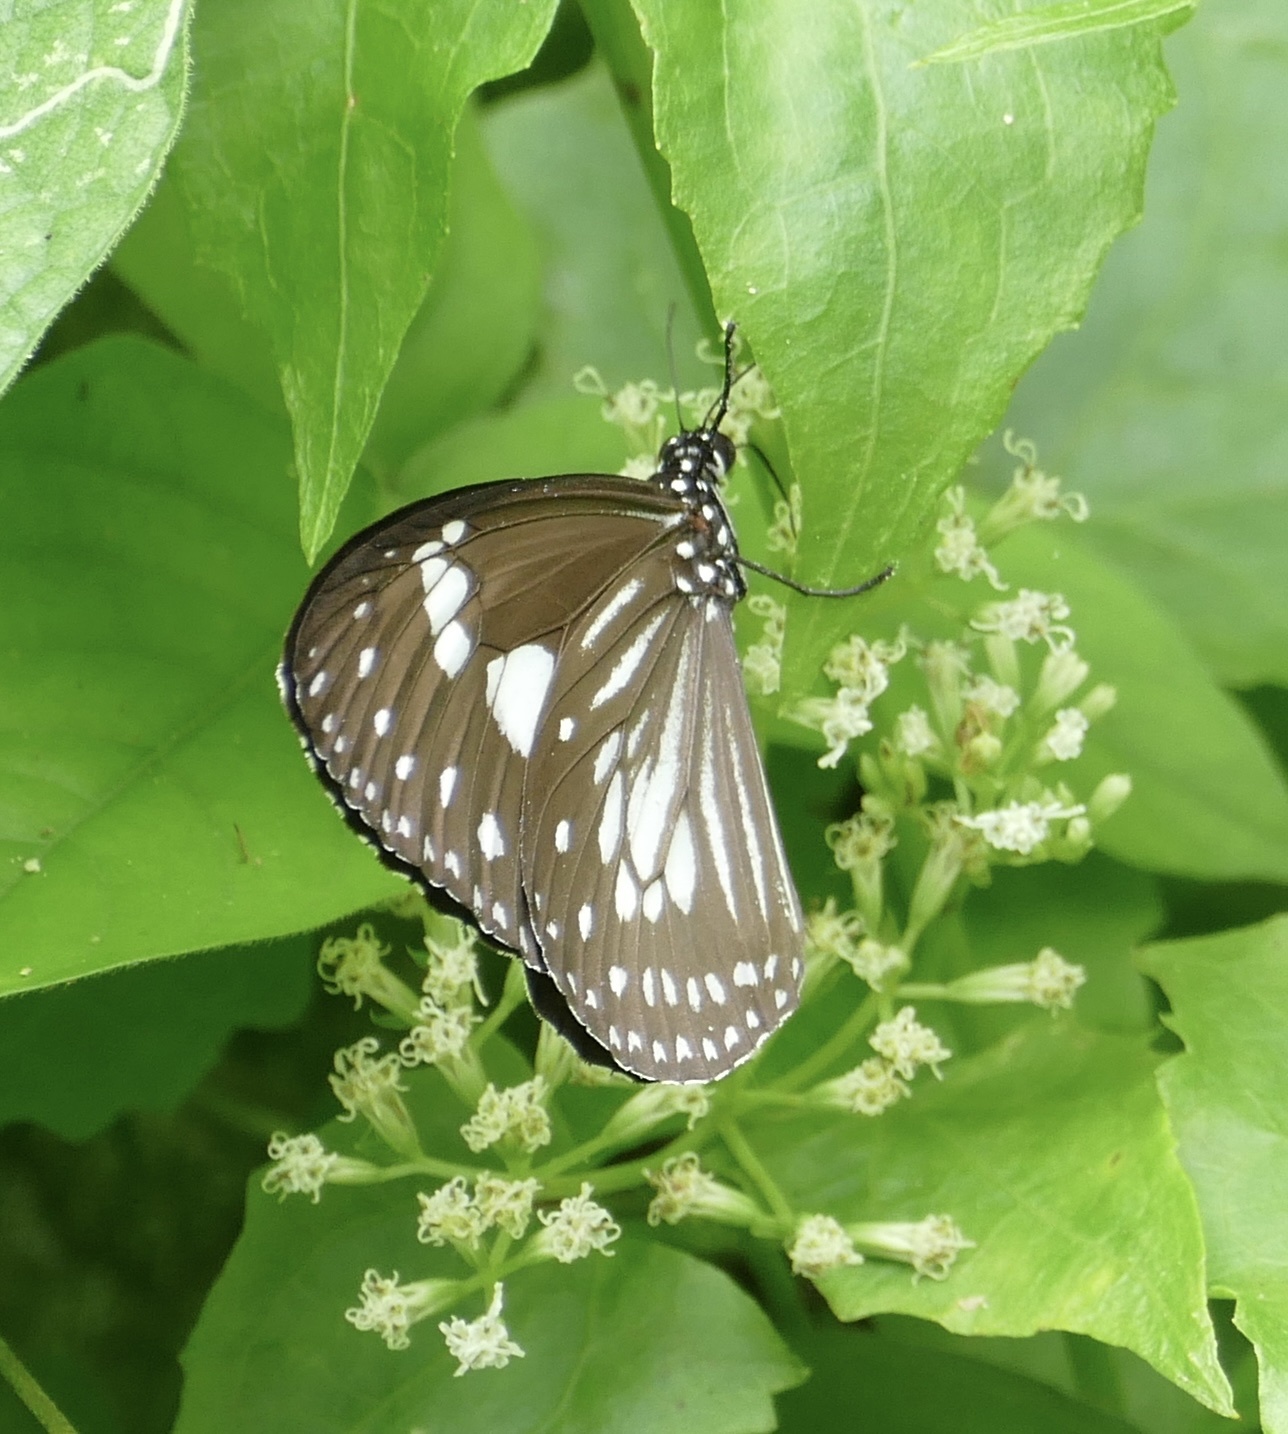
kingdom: Animalia
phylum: Arthropoda
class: Insecta
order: Lepidoptera
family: Nymphalidae
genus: Euploea
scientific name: Euploea hewitsonii
